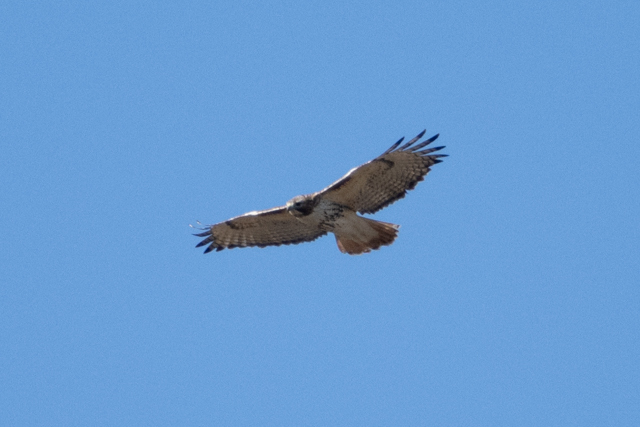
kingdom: Animalia
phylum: Chordata
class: Aves
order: Accipitriformes
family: Accipitridae
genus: Buteo
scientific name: Buteo jamaicensis
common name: Red-tailed hawk
